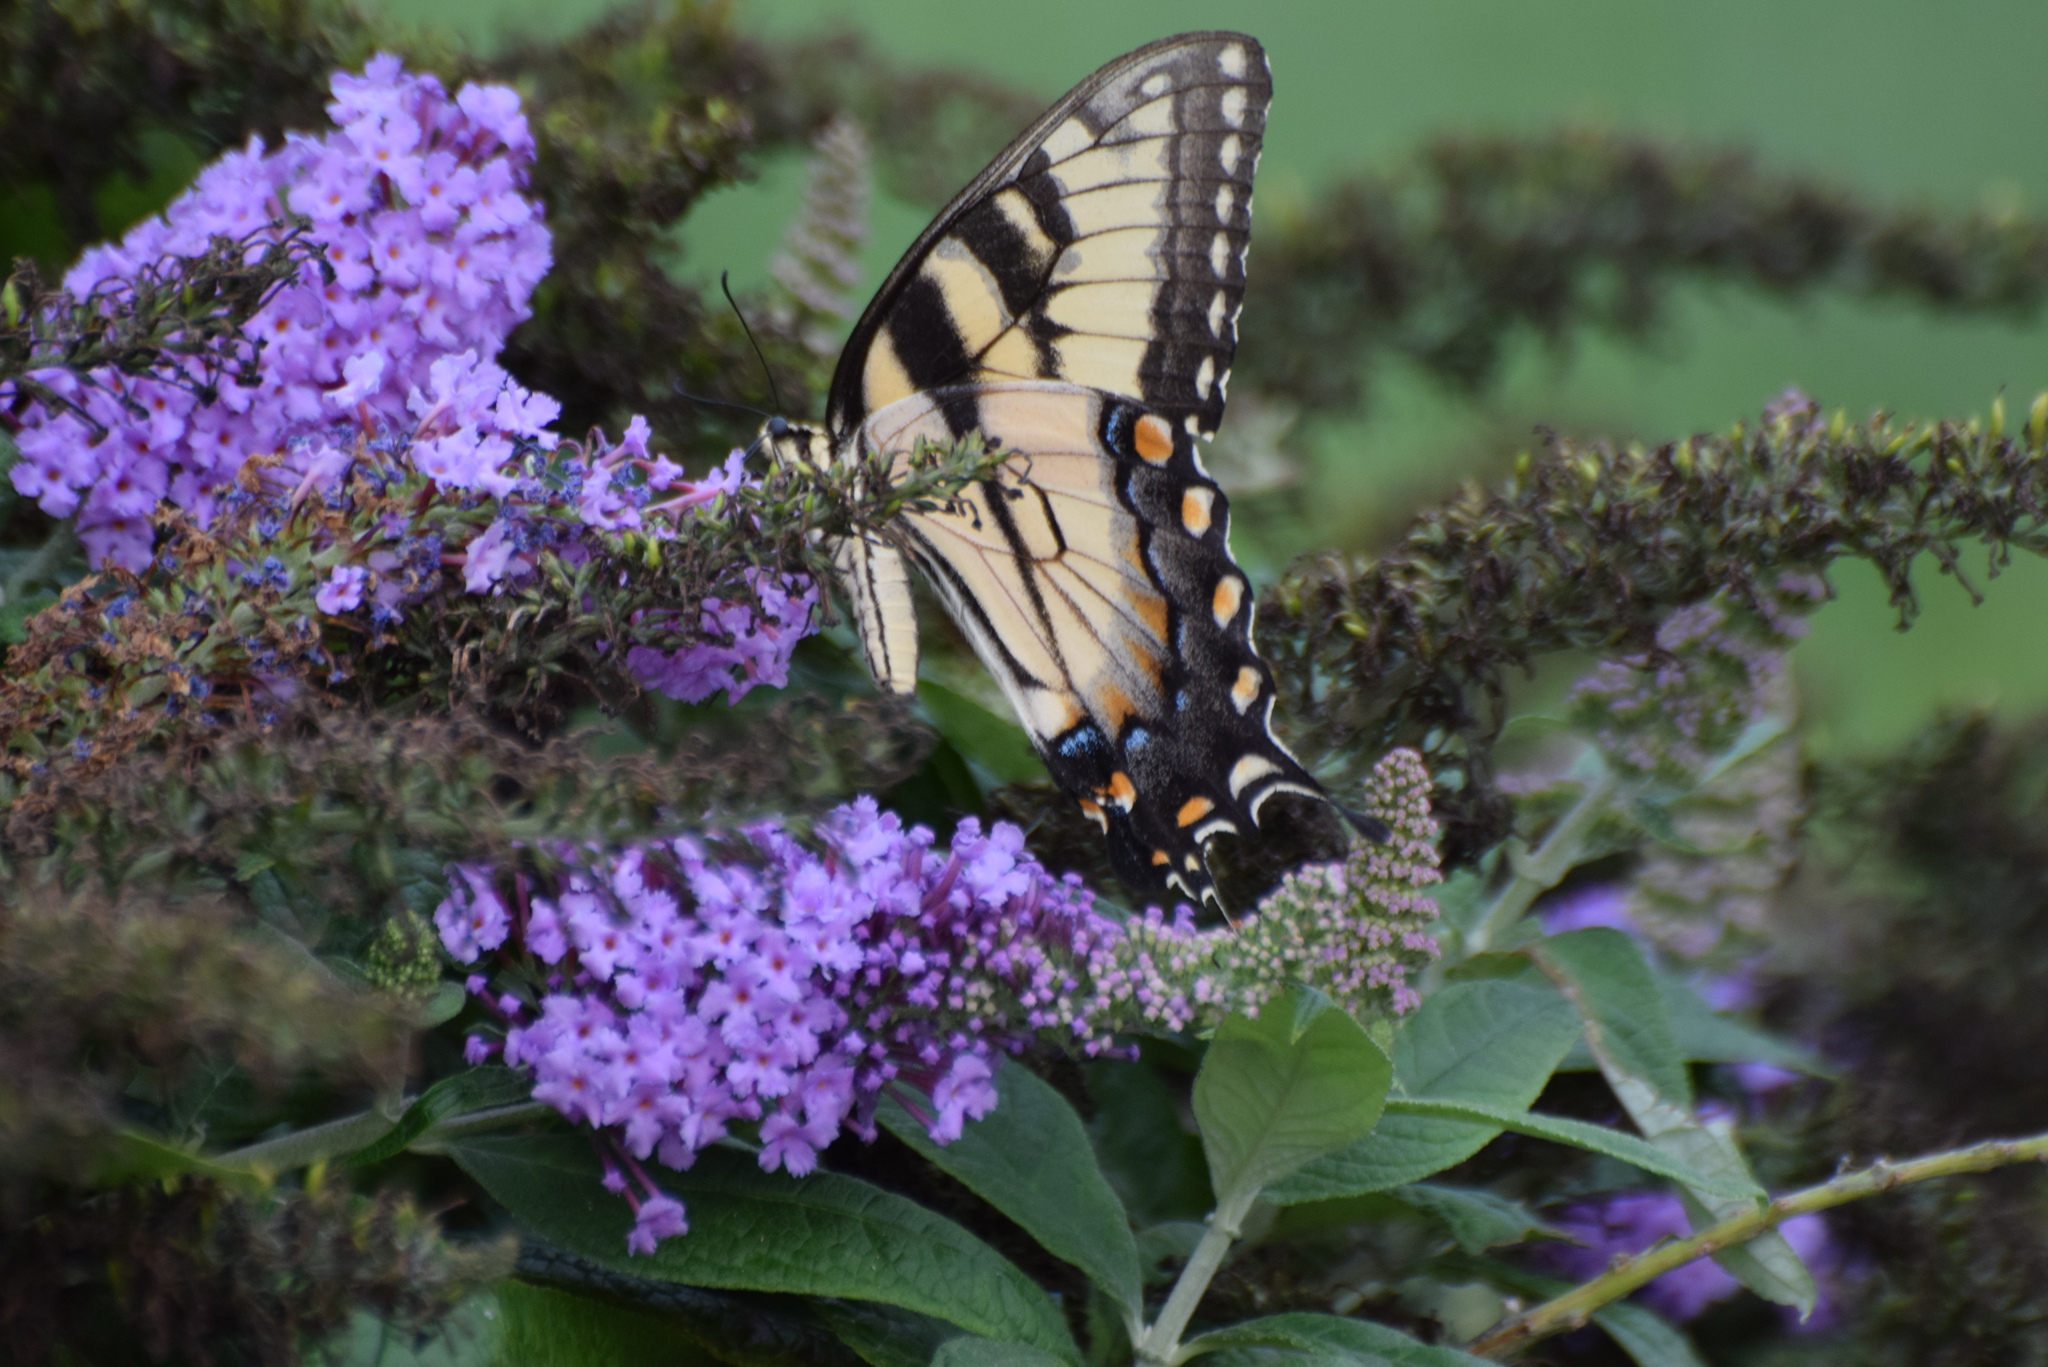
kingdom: Animalia
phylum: Arthropoda
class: Insecta
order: Lepidoptera
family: Papilionidae
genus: Papilio
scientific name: Papilio glaucus
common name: Tiger swallowtail
